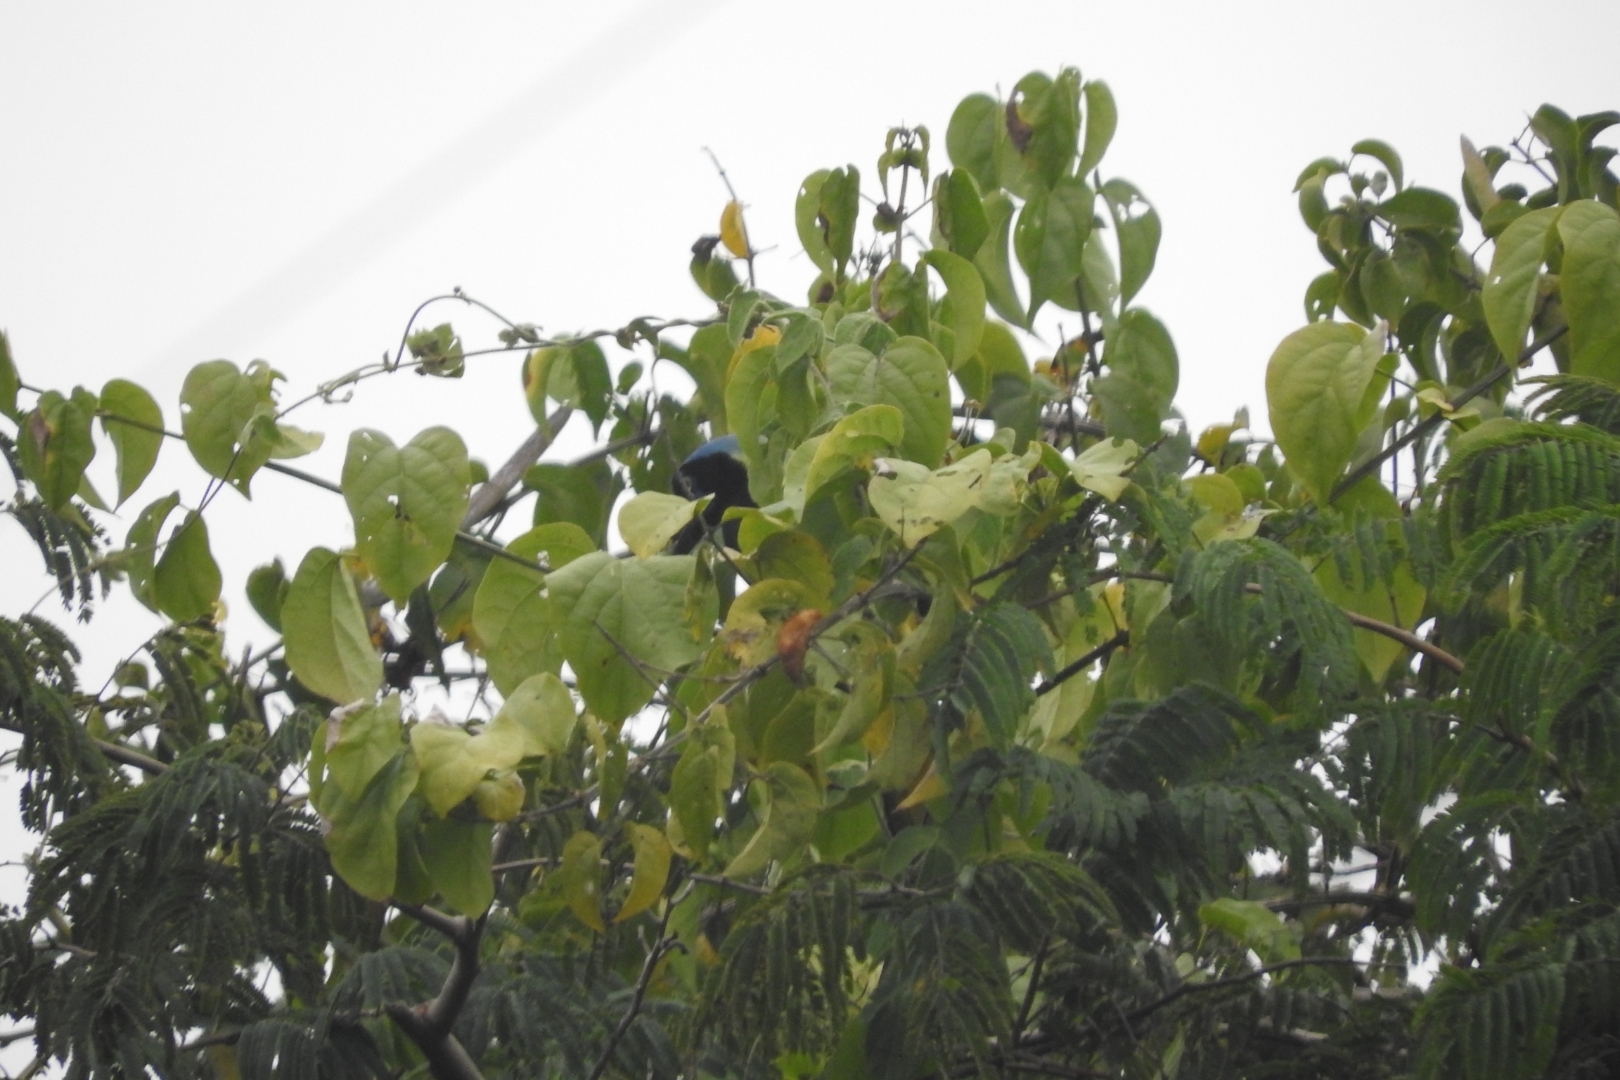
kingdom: Animalia
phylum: Chordata
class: Aves
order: Passeriformes
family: Corvidae
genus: Cyanocorax
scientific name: Cyanocorax yncas
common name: Green jay
